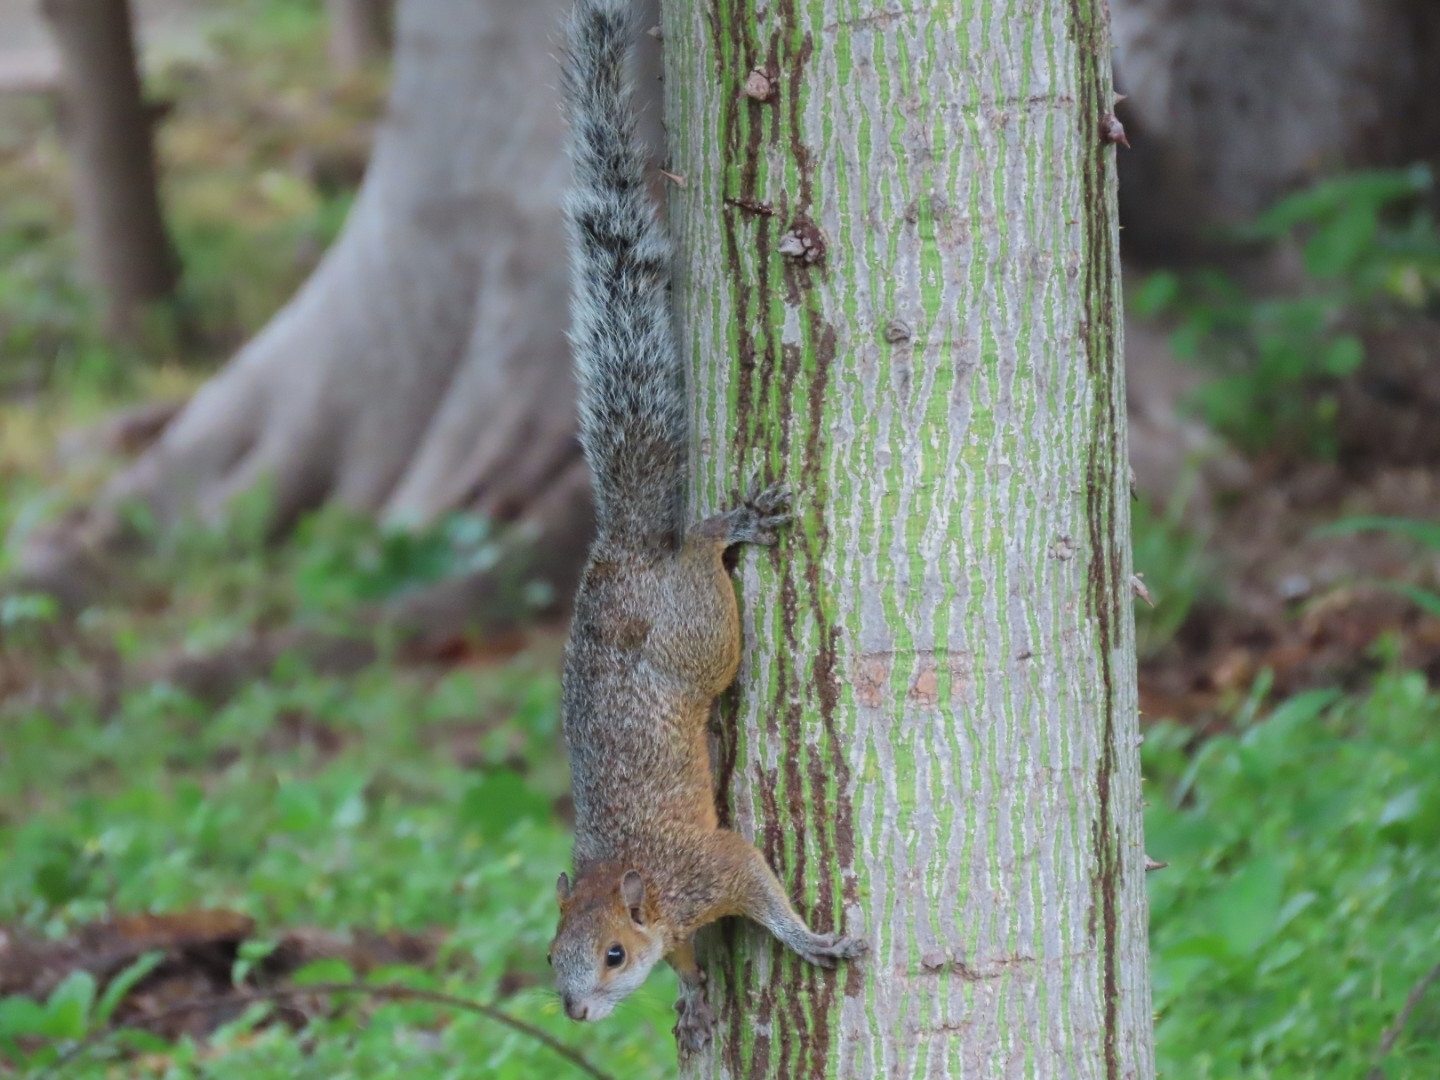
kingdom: Animalia
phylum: Chordata
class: Mammalia
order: Rodentia
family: Sciuridae
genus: Sciurus
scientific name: Sciurus aureogaster
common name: Red-bellied squirrel
